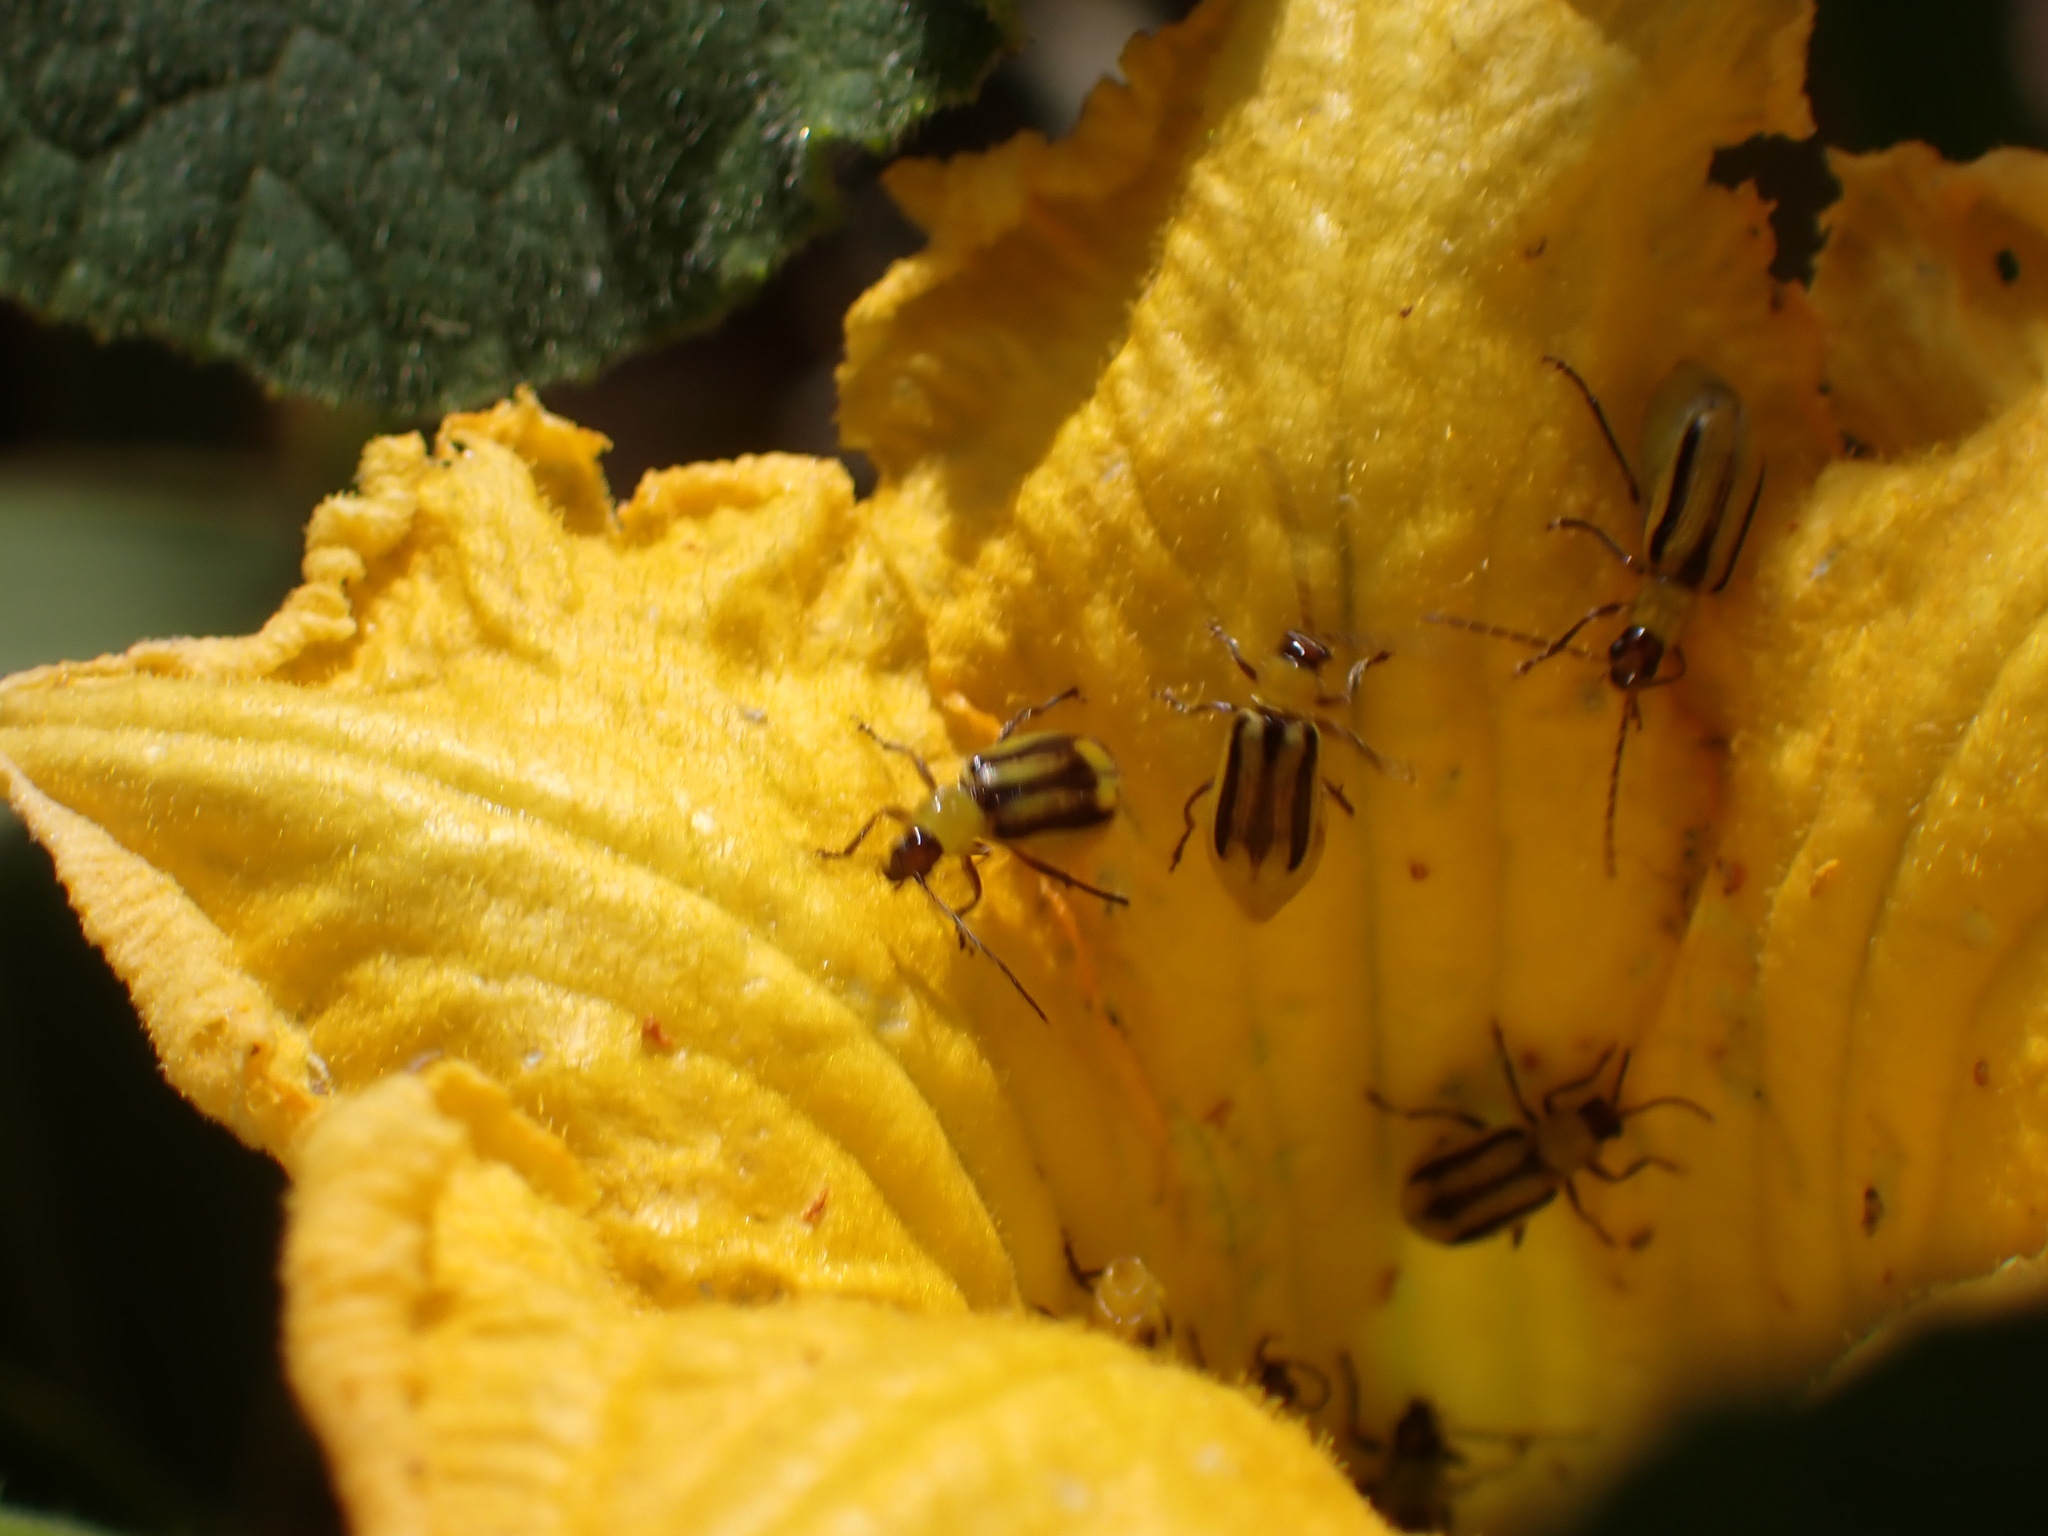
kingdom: Animalia
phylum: Arthropoda
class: Insecta
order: Coleoptera
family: Chrysomelidae
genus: Diabrotica
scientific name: Diabrotica virgifera
